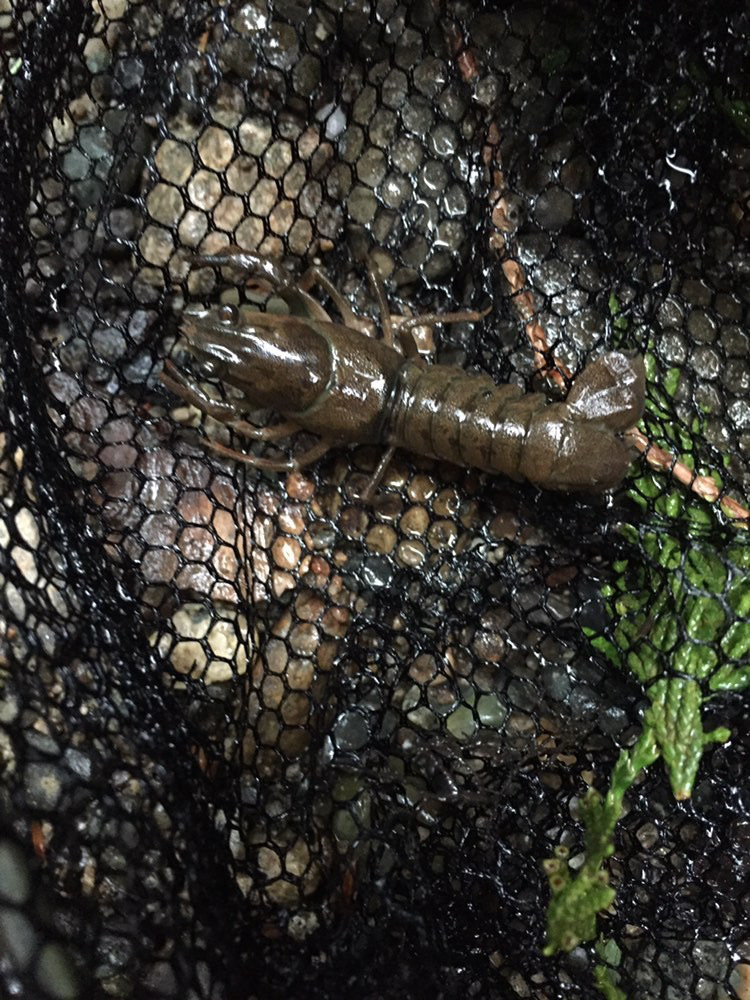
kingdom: Animalia
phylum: Arthropoda
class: Malacostraca
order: Decapoda
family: Astacidae
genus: Pacifastacus
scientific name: Pacifastacus leniusculus
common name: Signal crayfish
